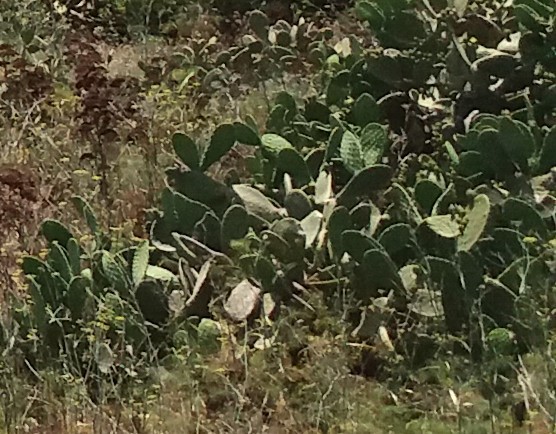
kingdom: Plantae
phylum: Tracheophyta
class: Magnoliopsida
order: Caryophyllales
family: Cactaceae
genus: Opuntia
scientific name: Opuntia ficus-indica
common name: Barbary fig
